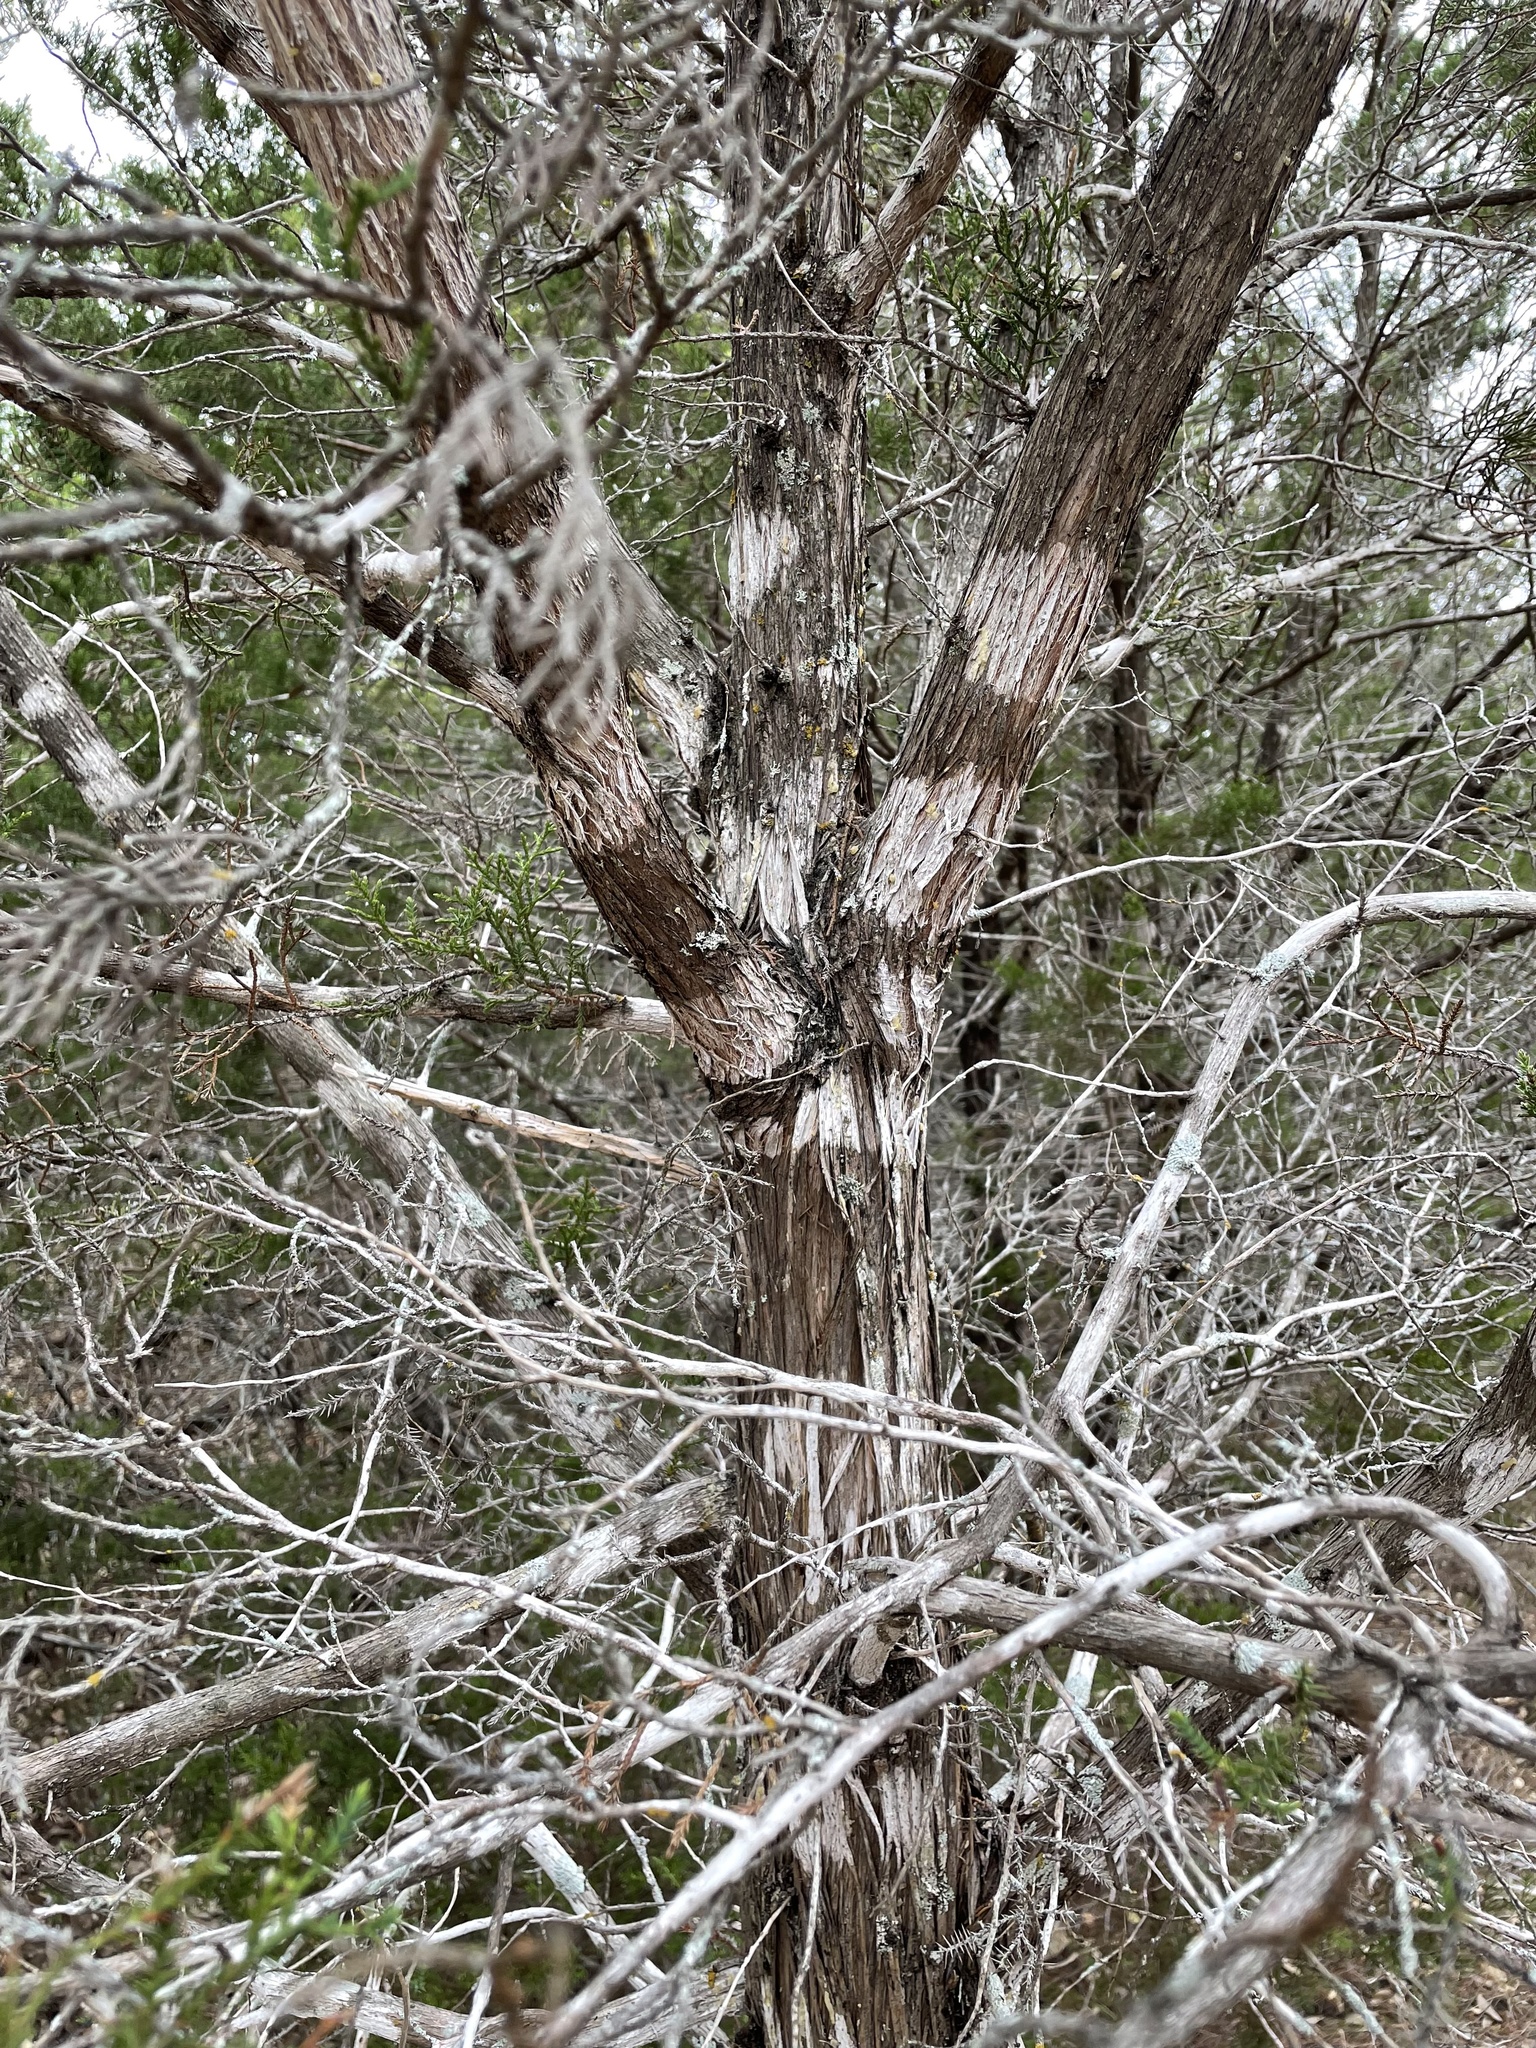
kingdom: Fungi
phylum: Ascomycota
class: Lecanoromycetes
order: Ostropales
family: Stictidaceae
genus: Robergea
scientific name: Robergea
